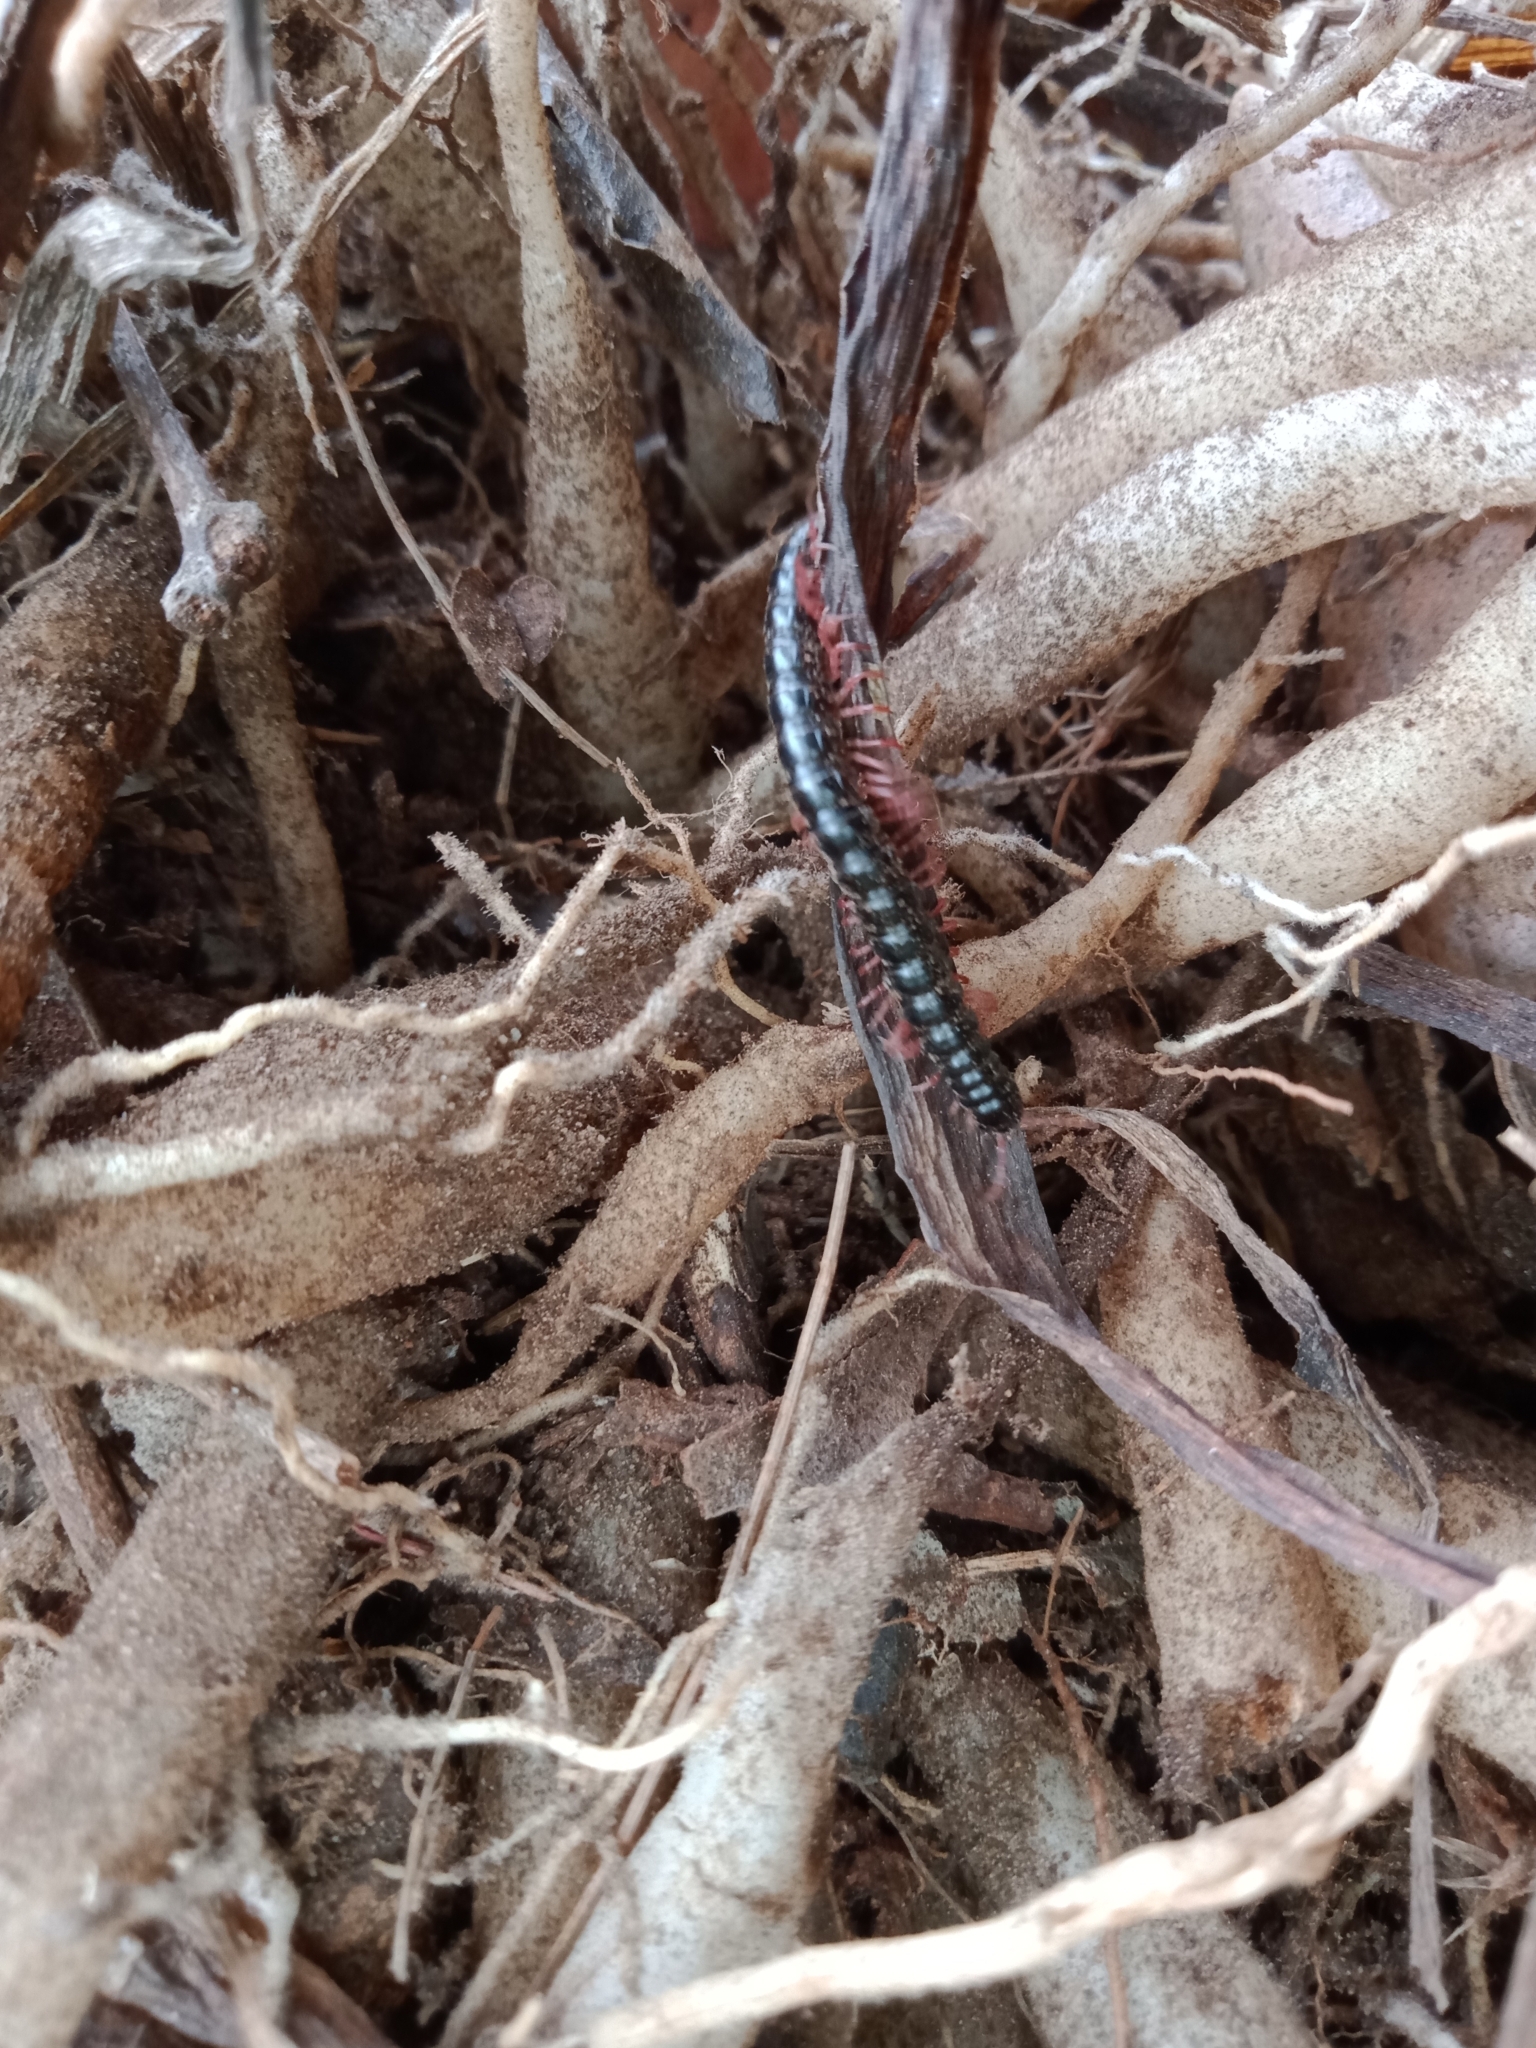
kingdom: Animalia
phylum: Arthropoda
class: Diplopoda
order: Polydesmida
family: Paradoxosomatidae
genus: Heterocladosoma
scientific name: Heterocladosoma
